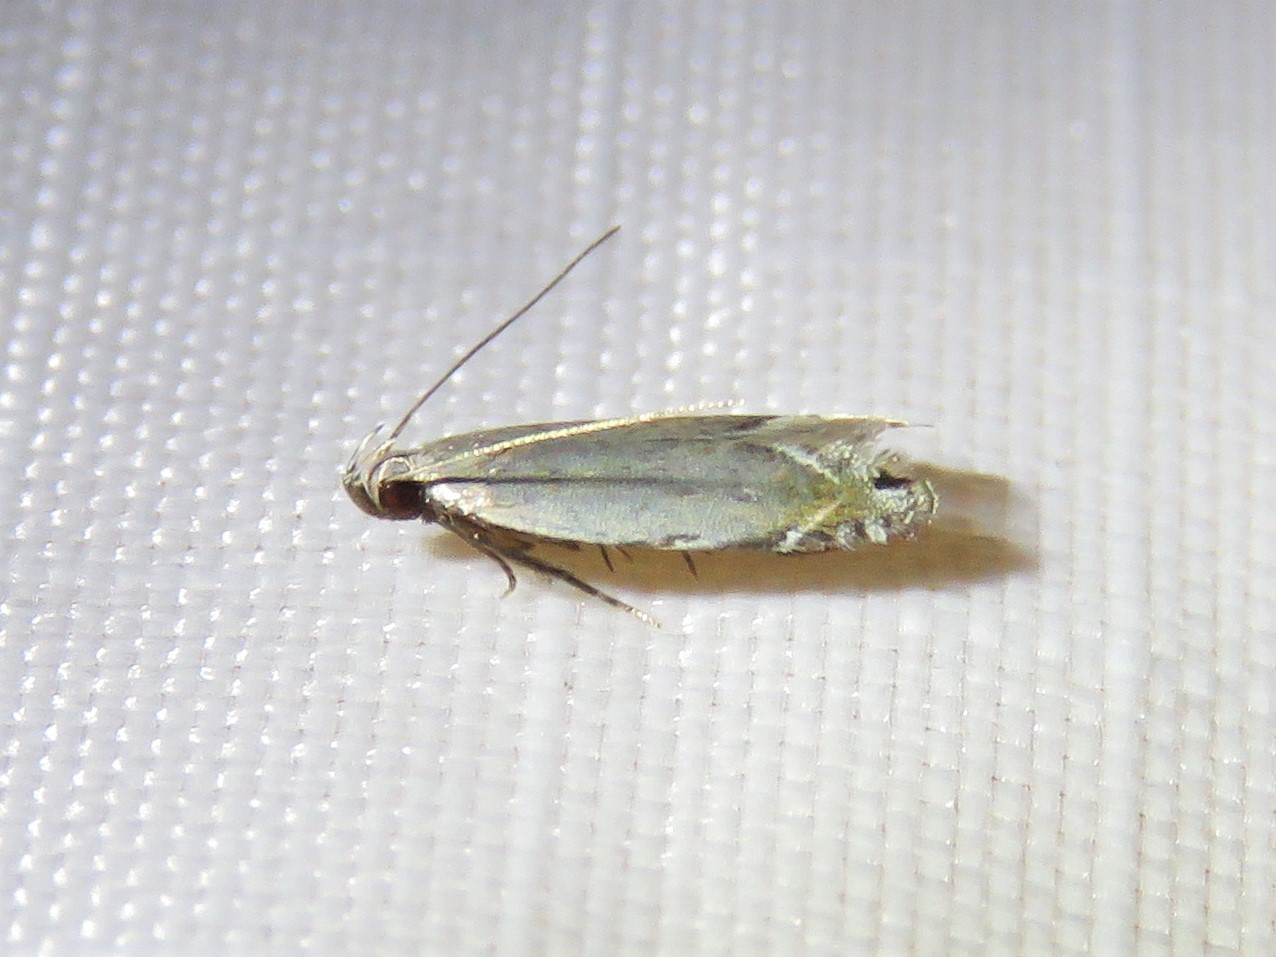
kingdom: Animalia
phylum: Arthropoda
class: Insecta
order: Lepidoptera
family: Gelechiidae
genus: Battaristis
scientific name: Battaristis concinnusella
